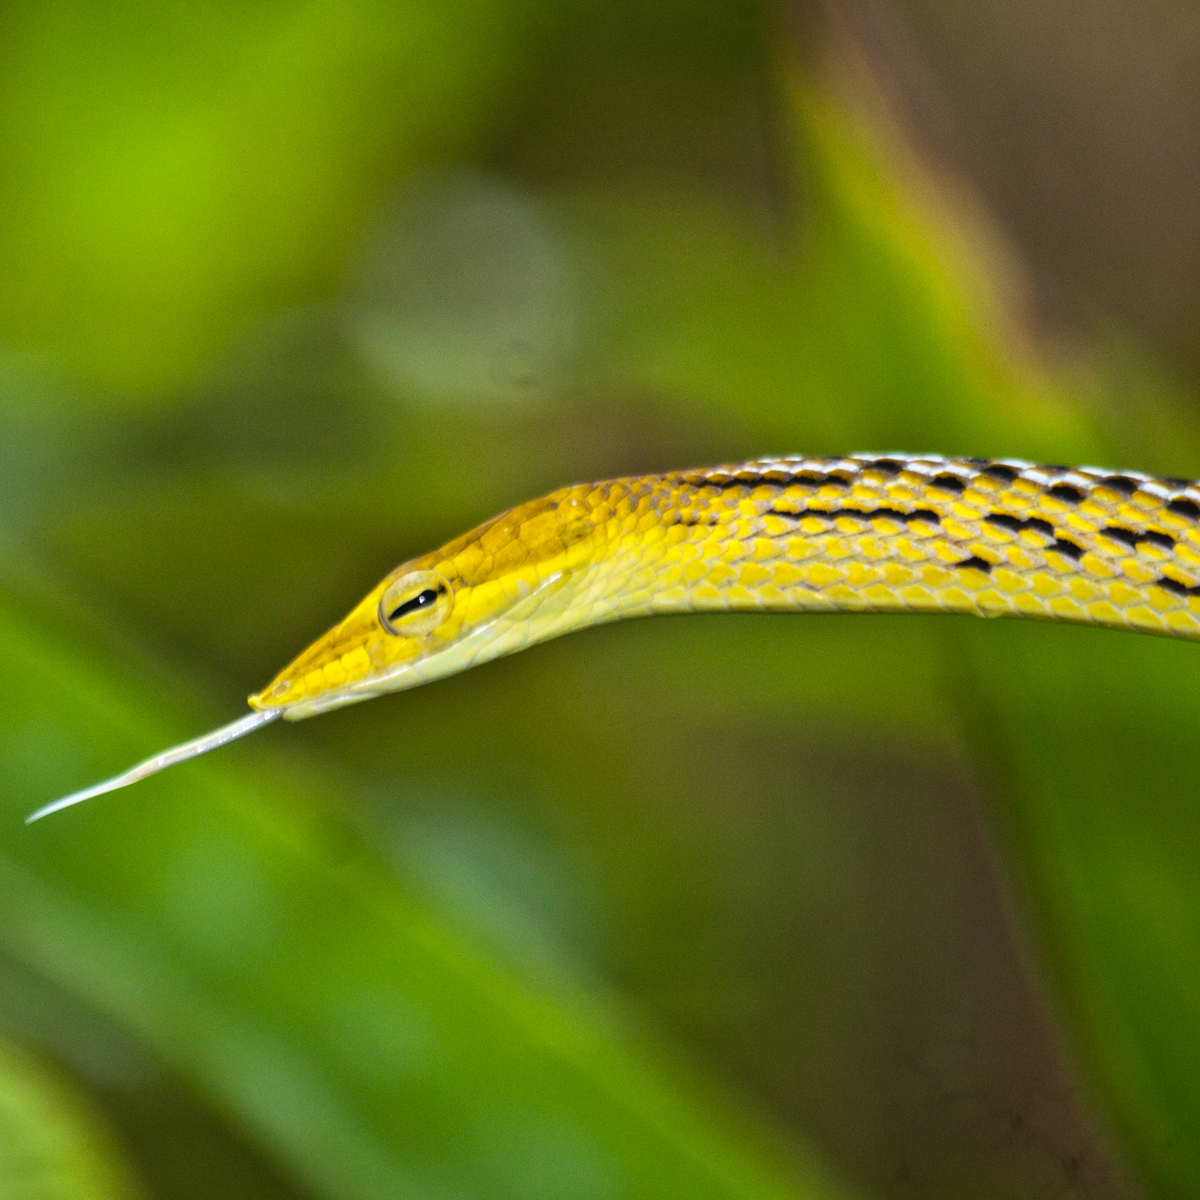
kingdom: Animalia
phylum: Chordata
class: Squamata
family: Colubridae
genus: Ahaetulla
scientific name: Ahaetulla prasina
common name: Oriental whip snake
